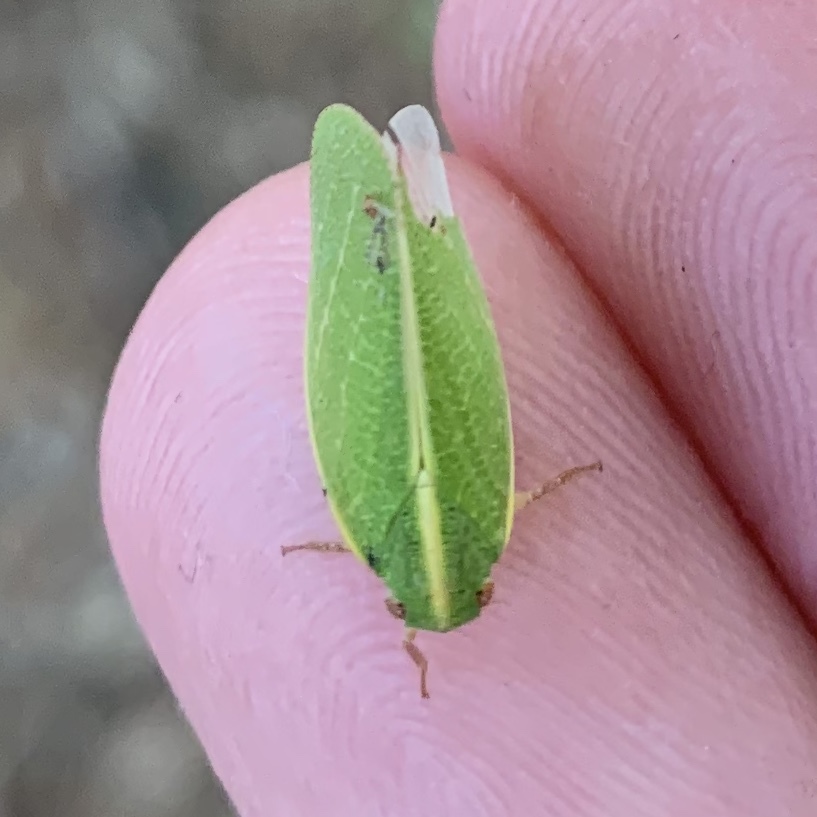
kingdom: Animalia
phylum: Arthropoda
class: Insecta
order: Hemiptera
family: Acanaloniidae
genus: Acanalonia
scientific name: Acanalonia servillei
